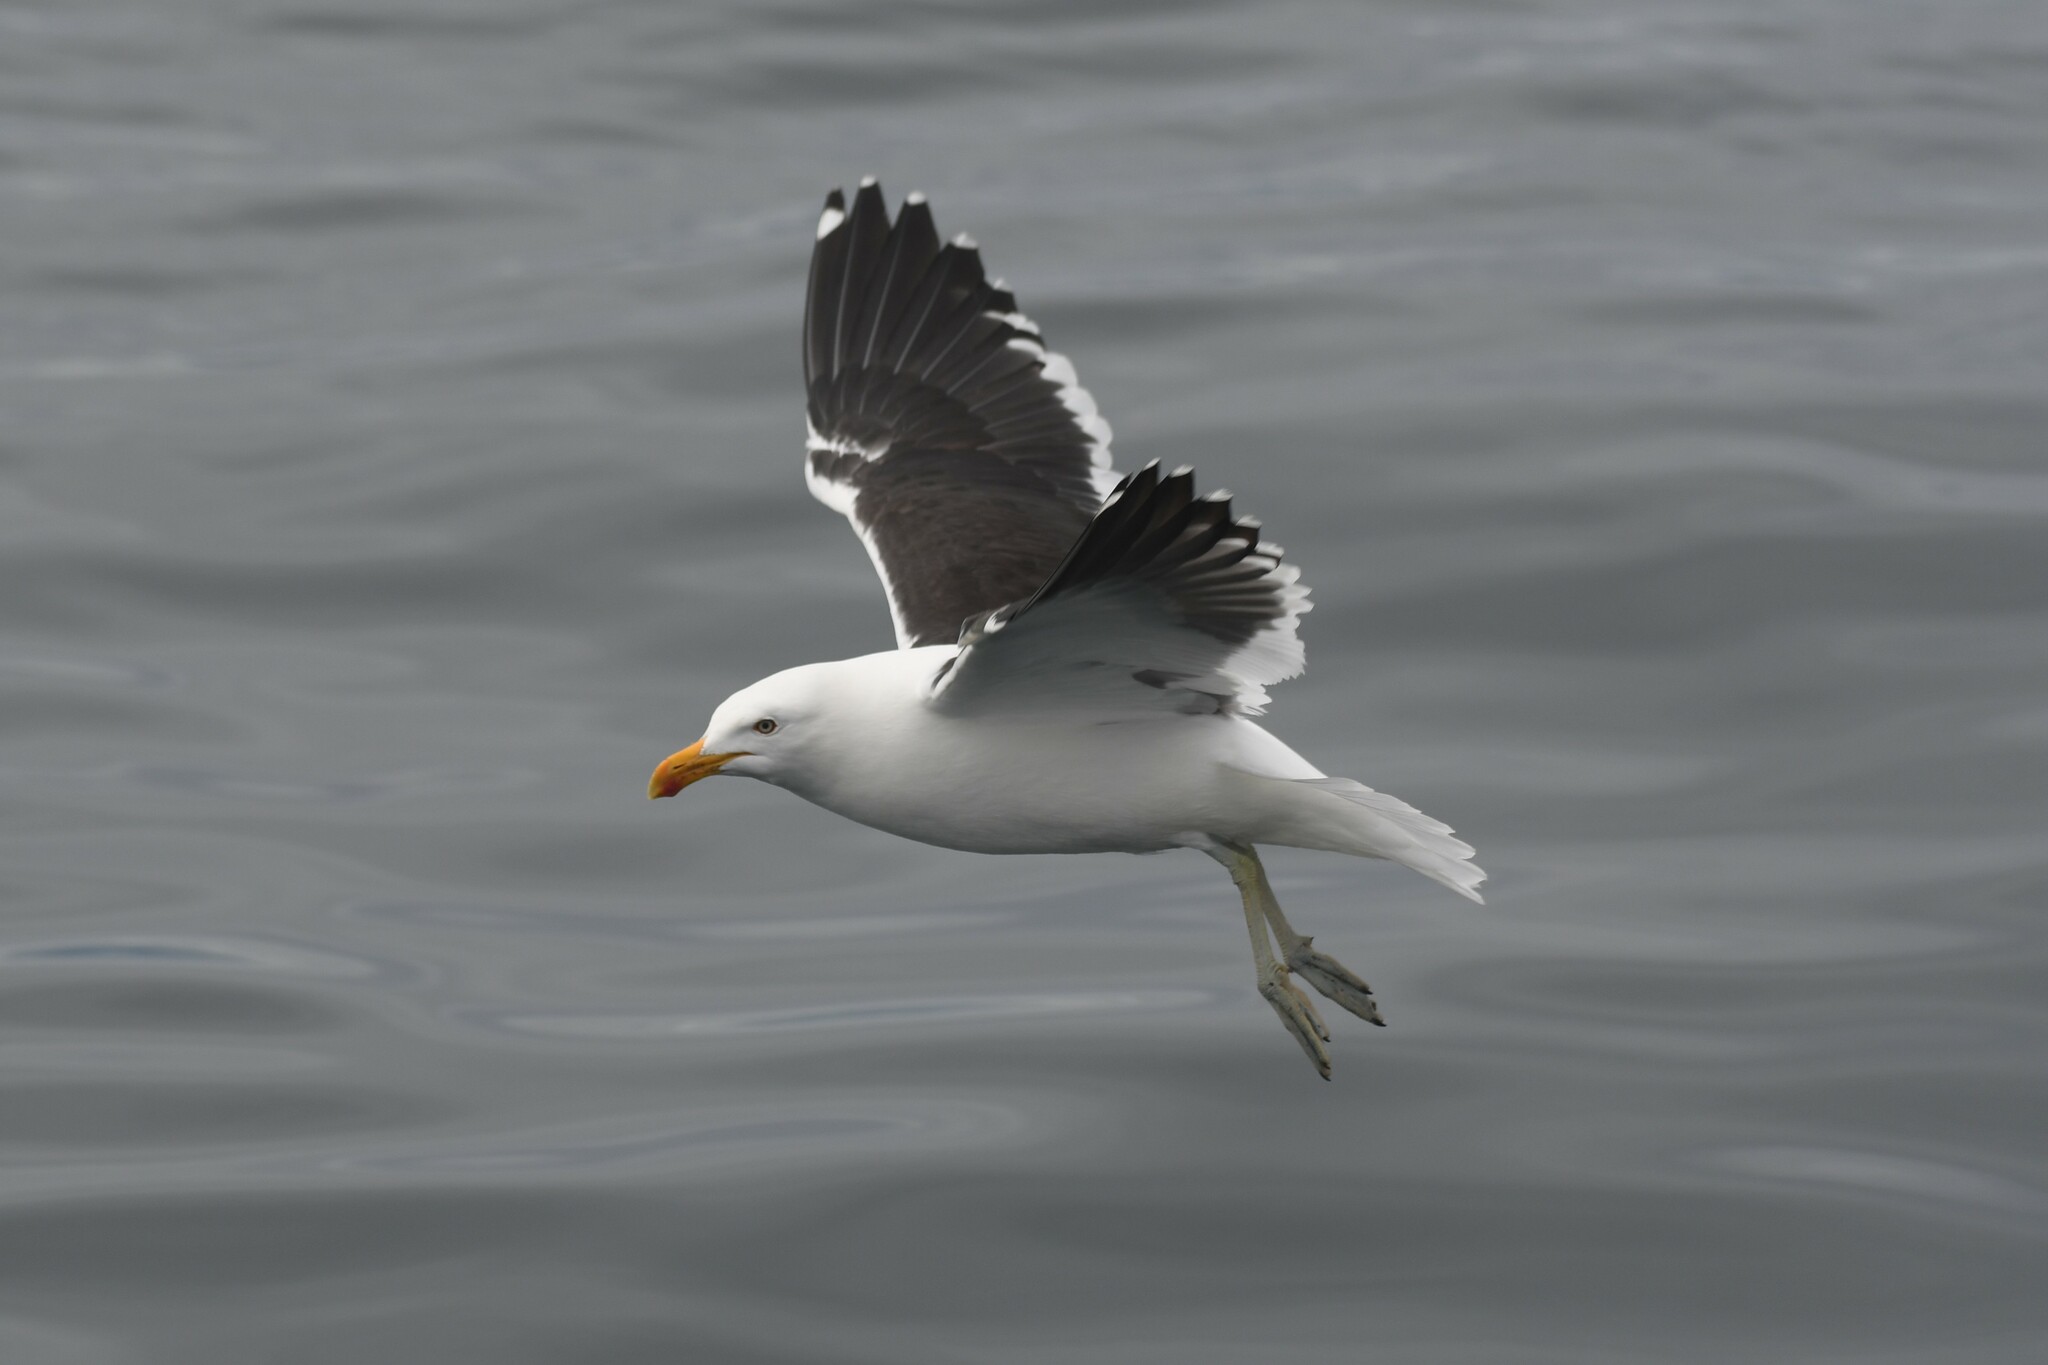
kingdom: Animalia
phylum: Chordata
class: Aves
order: Charadriiformes
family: Laridae
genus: Larus
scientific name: Larus dominicanus
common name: Kelp gull
